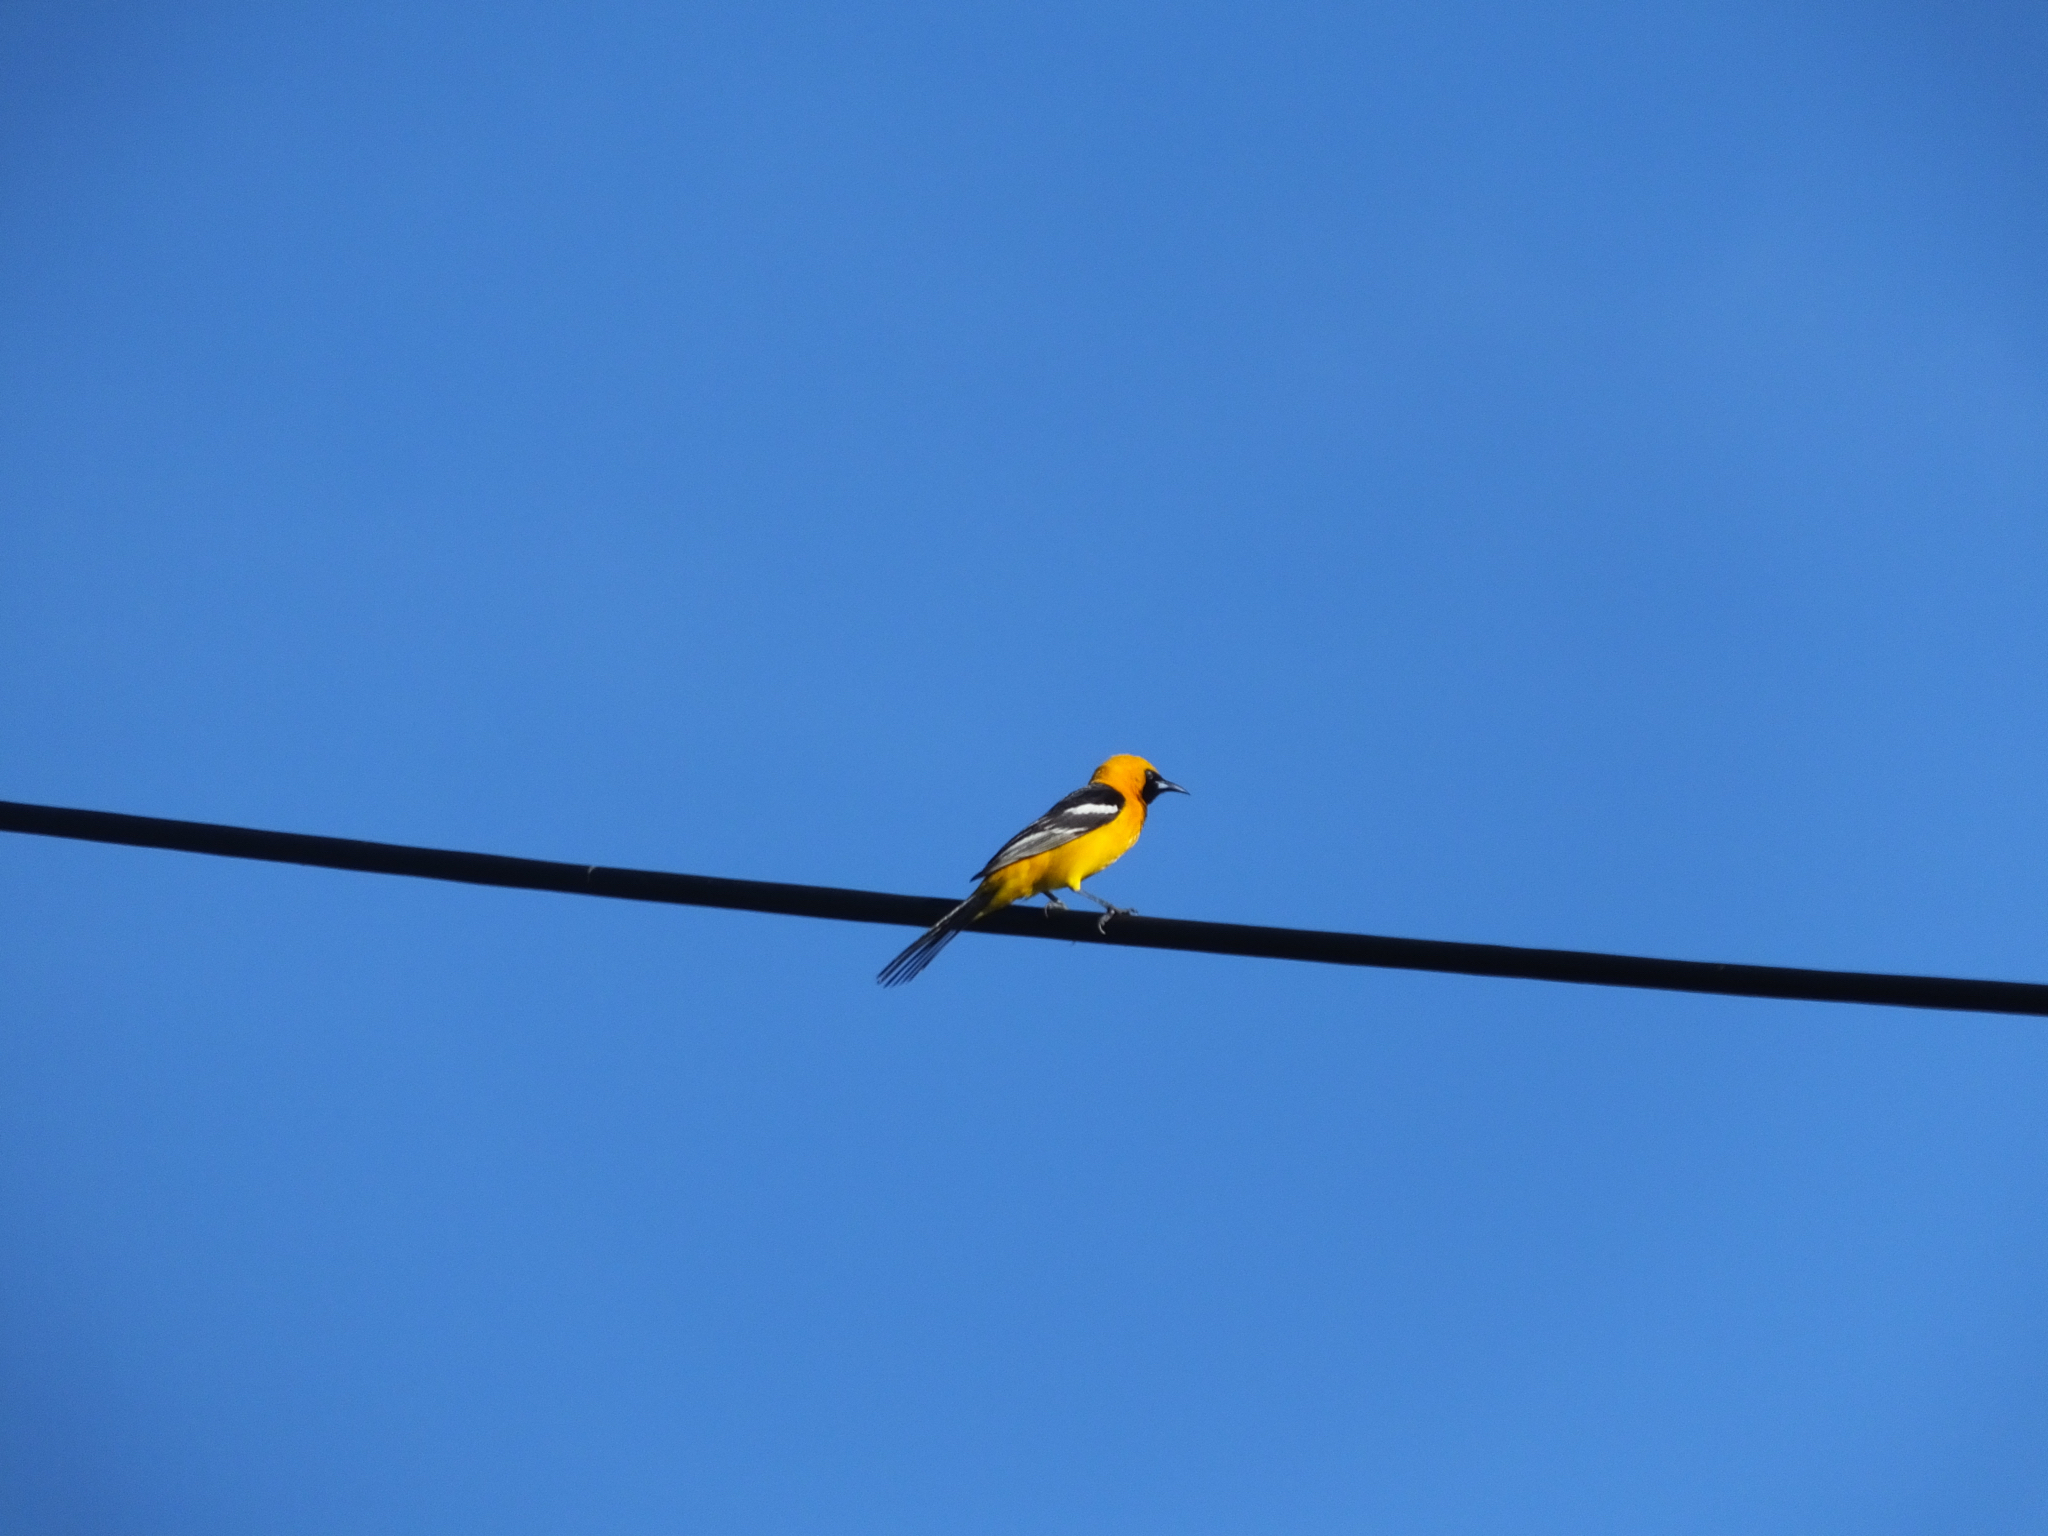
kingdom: Animalia
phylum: Chordata
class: Aves
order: Passeriformes
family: Icteridae
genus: Icterus
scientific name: Icterus cucullatus
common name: Hooded oriole
